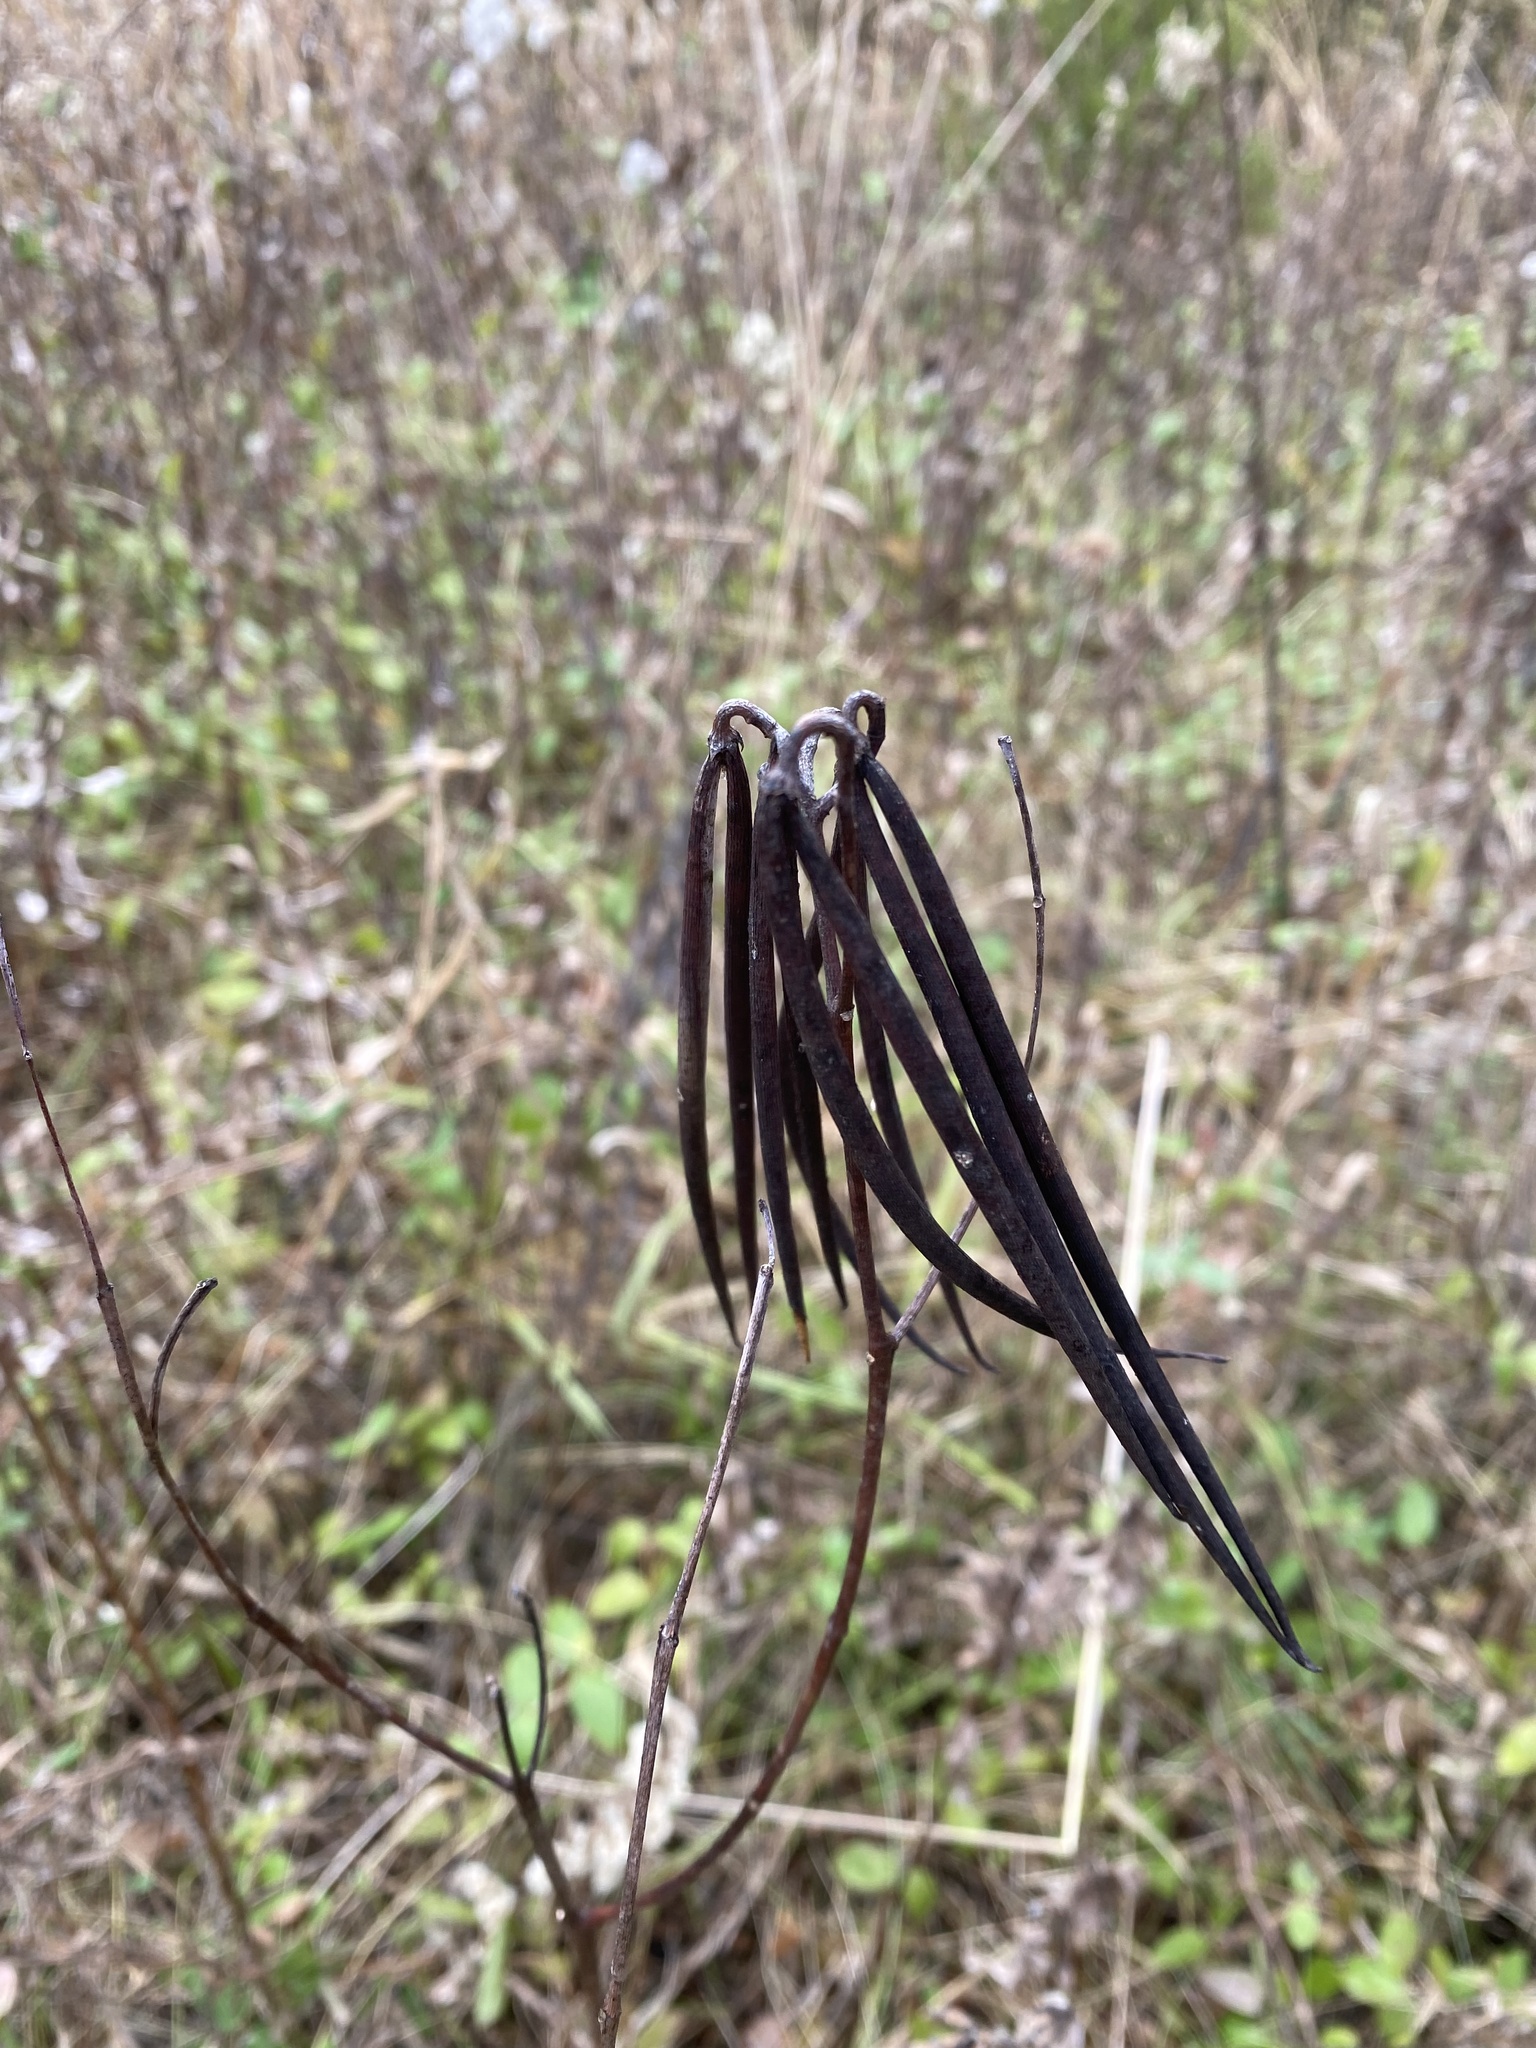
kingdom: Plantae
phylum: Tracheophyta
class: Magnoliopsida
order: Gentianales
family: Apocynaceae
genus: Apocynum
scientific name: Apocynum cannabinum
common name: Hemp dogbane
